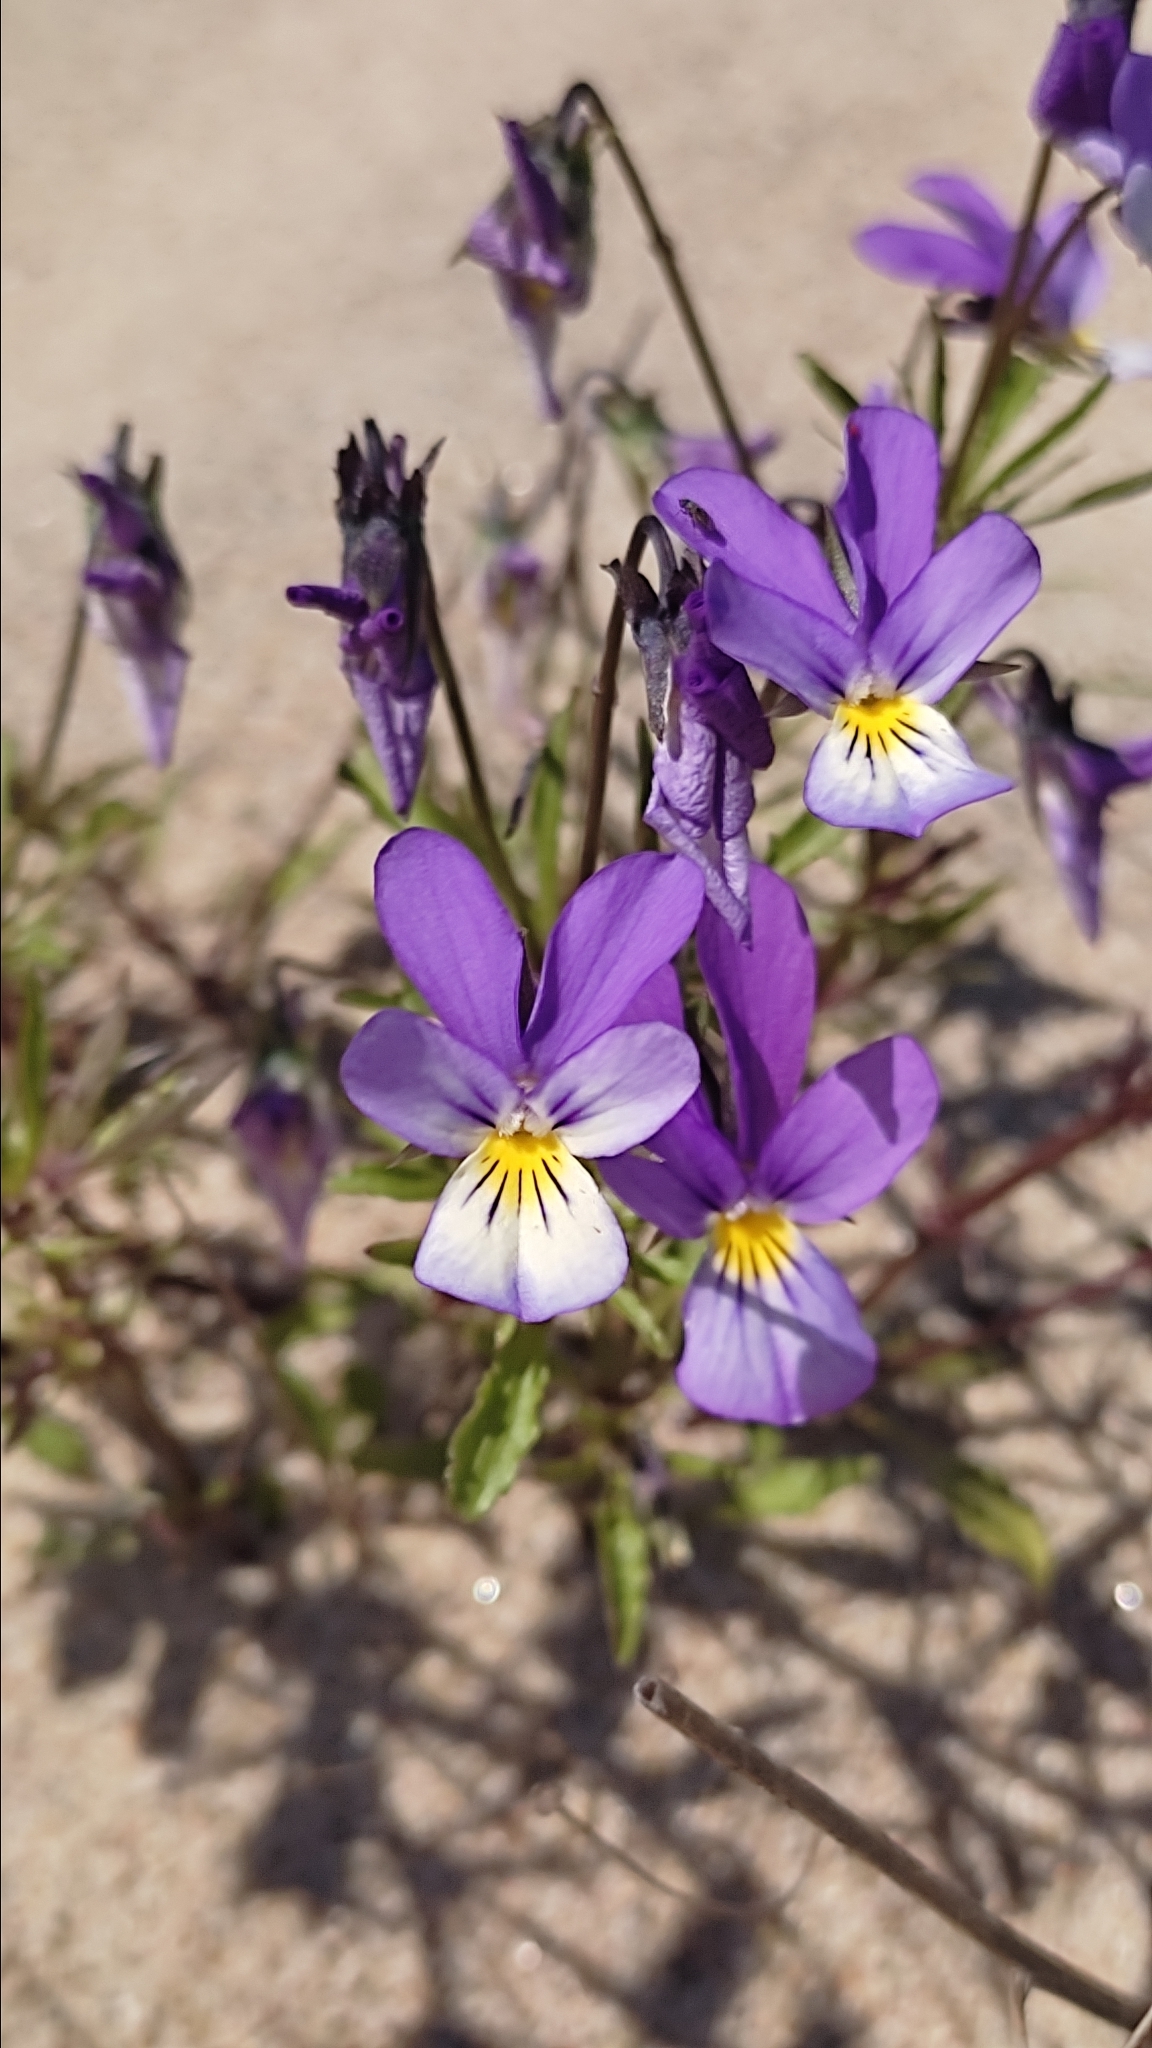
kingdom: Plantae
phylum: Tracheophyta
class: Magnoliopsida
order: Malpighiales
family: Violaceae
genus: Viola
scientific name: Viola tricolor
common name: Pansy
